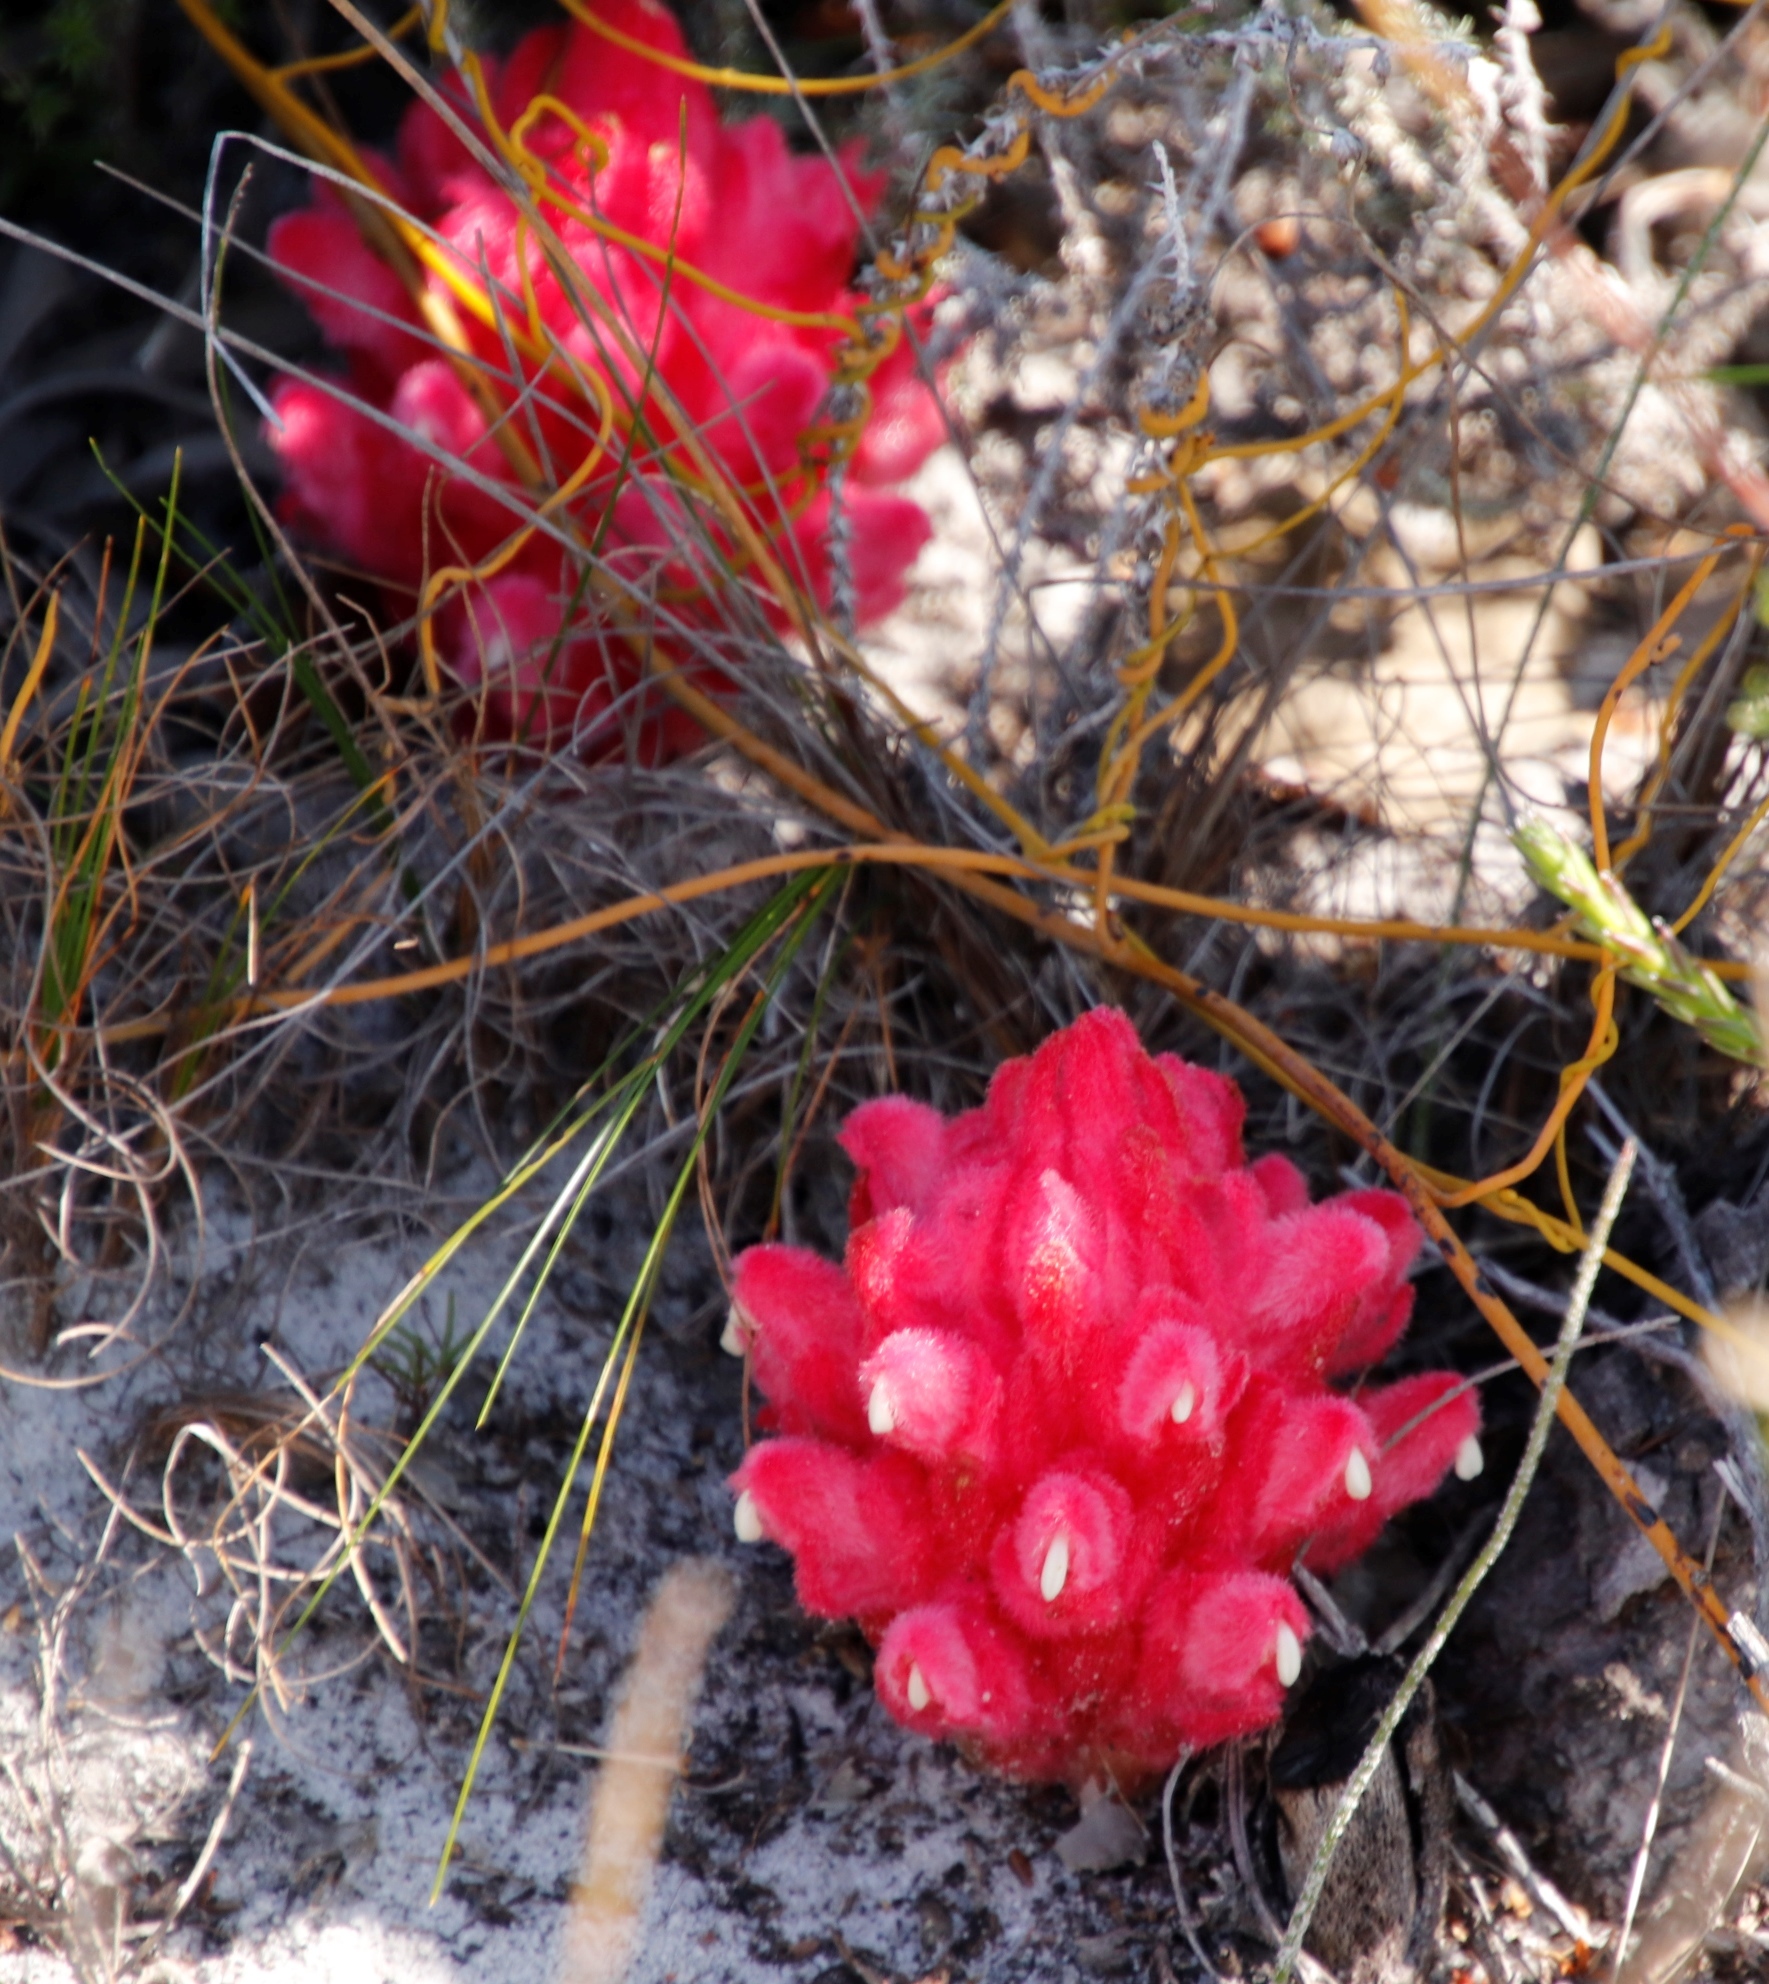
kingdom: Plantae
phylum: Tracheophyta
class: Magnoliopsida
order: Lamiales
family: Orobanchaceae
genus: Hyobanche
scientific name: Hyobanche sanguinea
